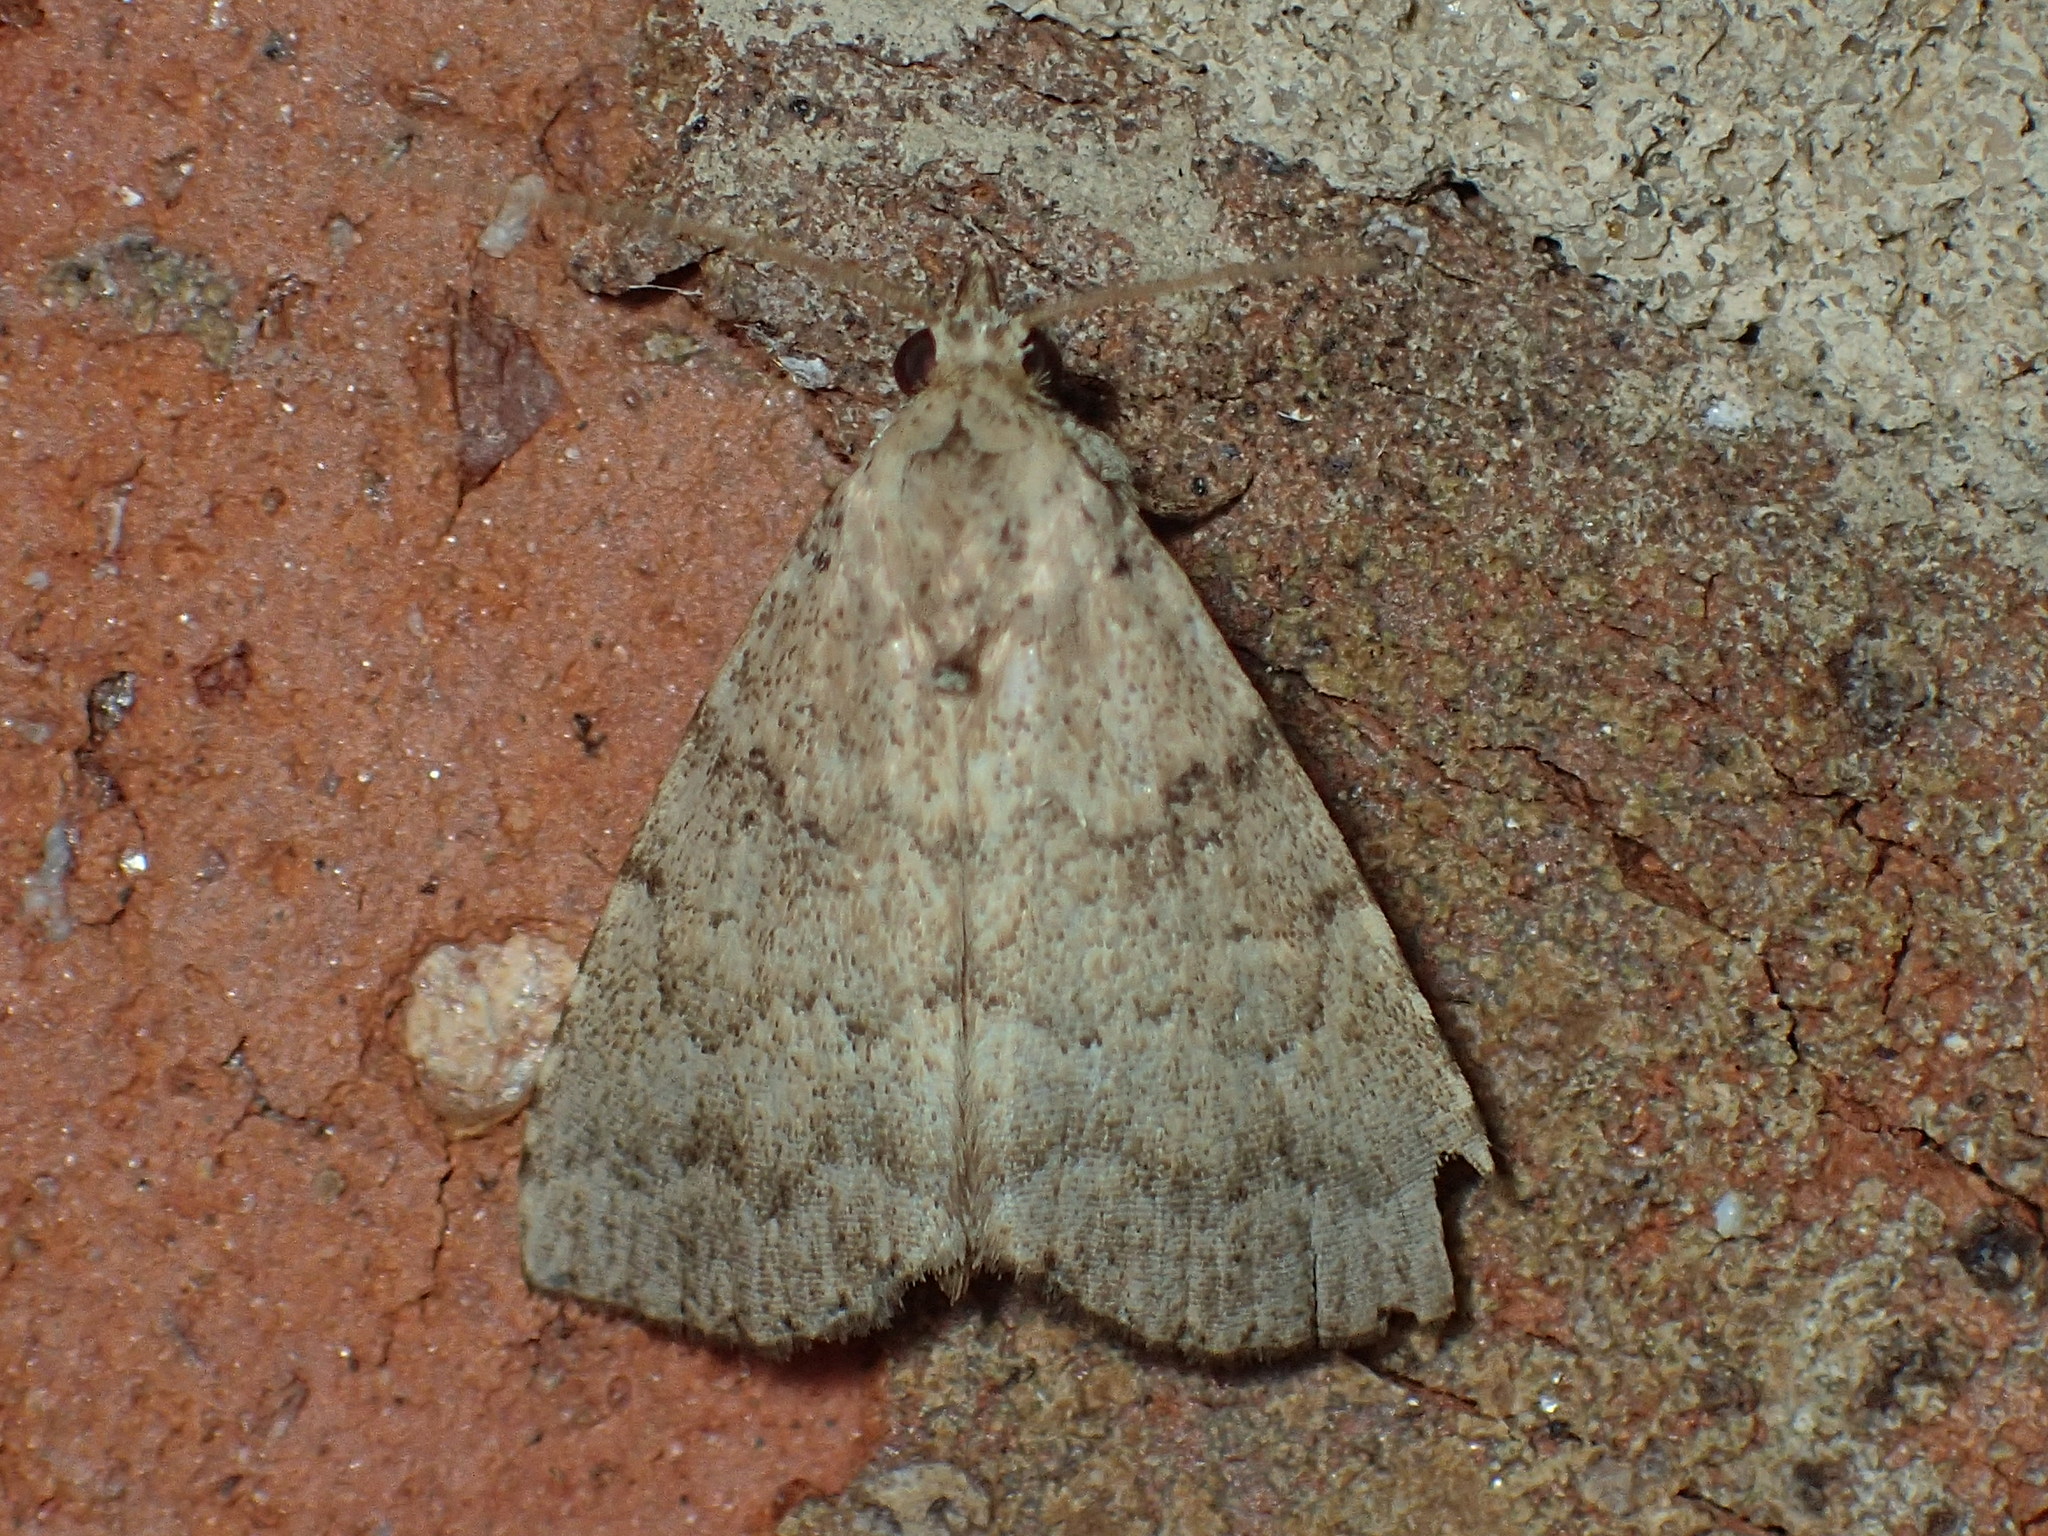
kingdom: Animalia
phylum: Arthropoda
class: Insecta
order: Lepidoptera
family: Erebidae
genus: Arugisa
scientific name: Arugisa latiorella
